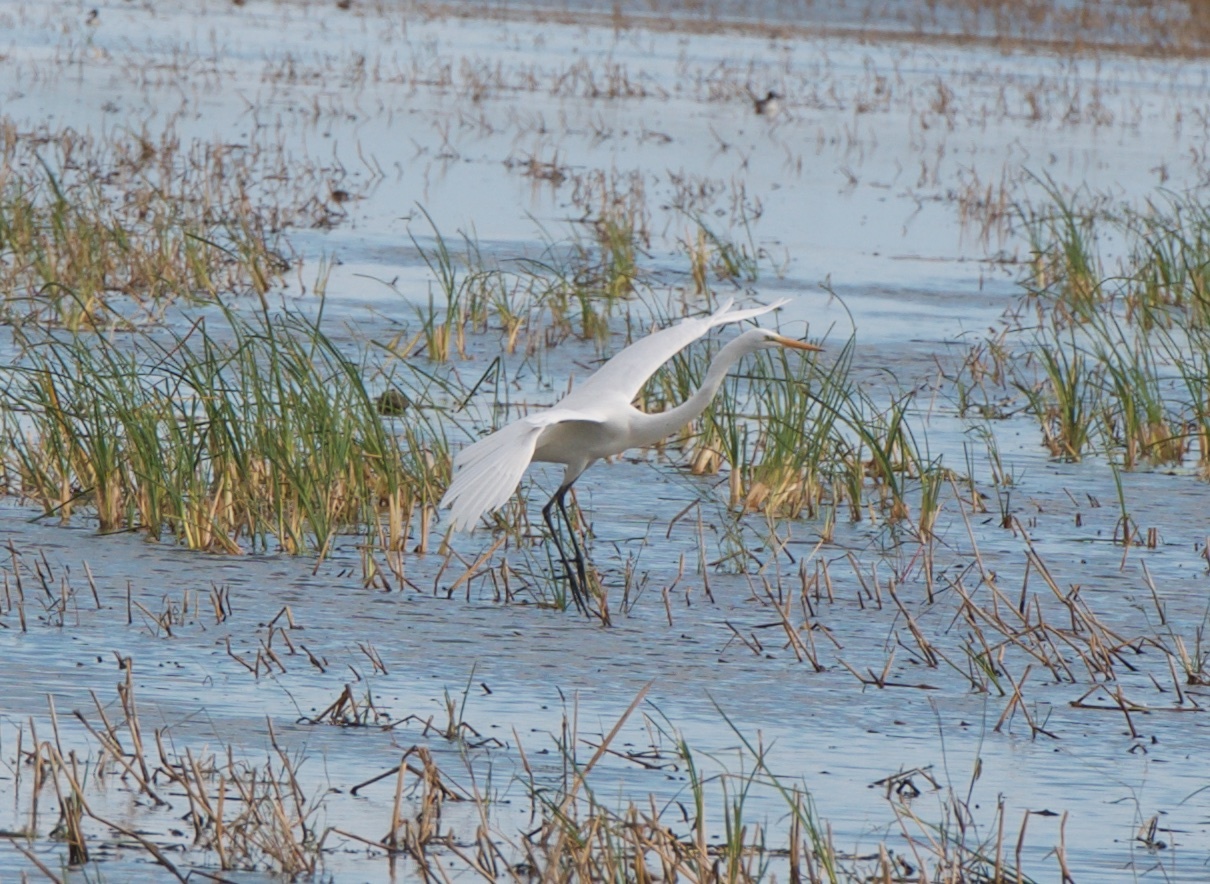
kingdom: Animalia
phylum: Chordata
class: Aves
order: Pelecaniformes
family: Ardeidae
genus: Ardea
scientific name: Ardea alba
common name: Great egret
